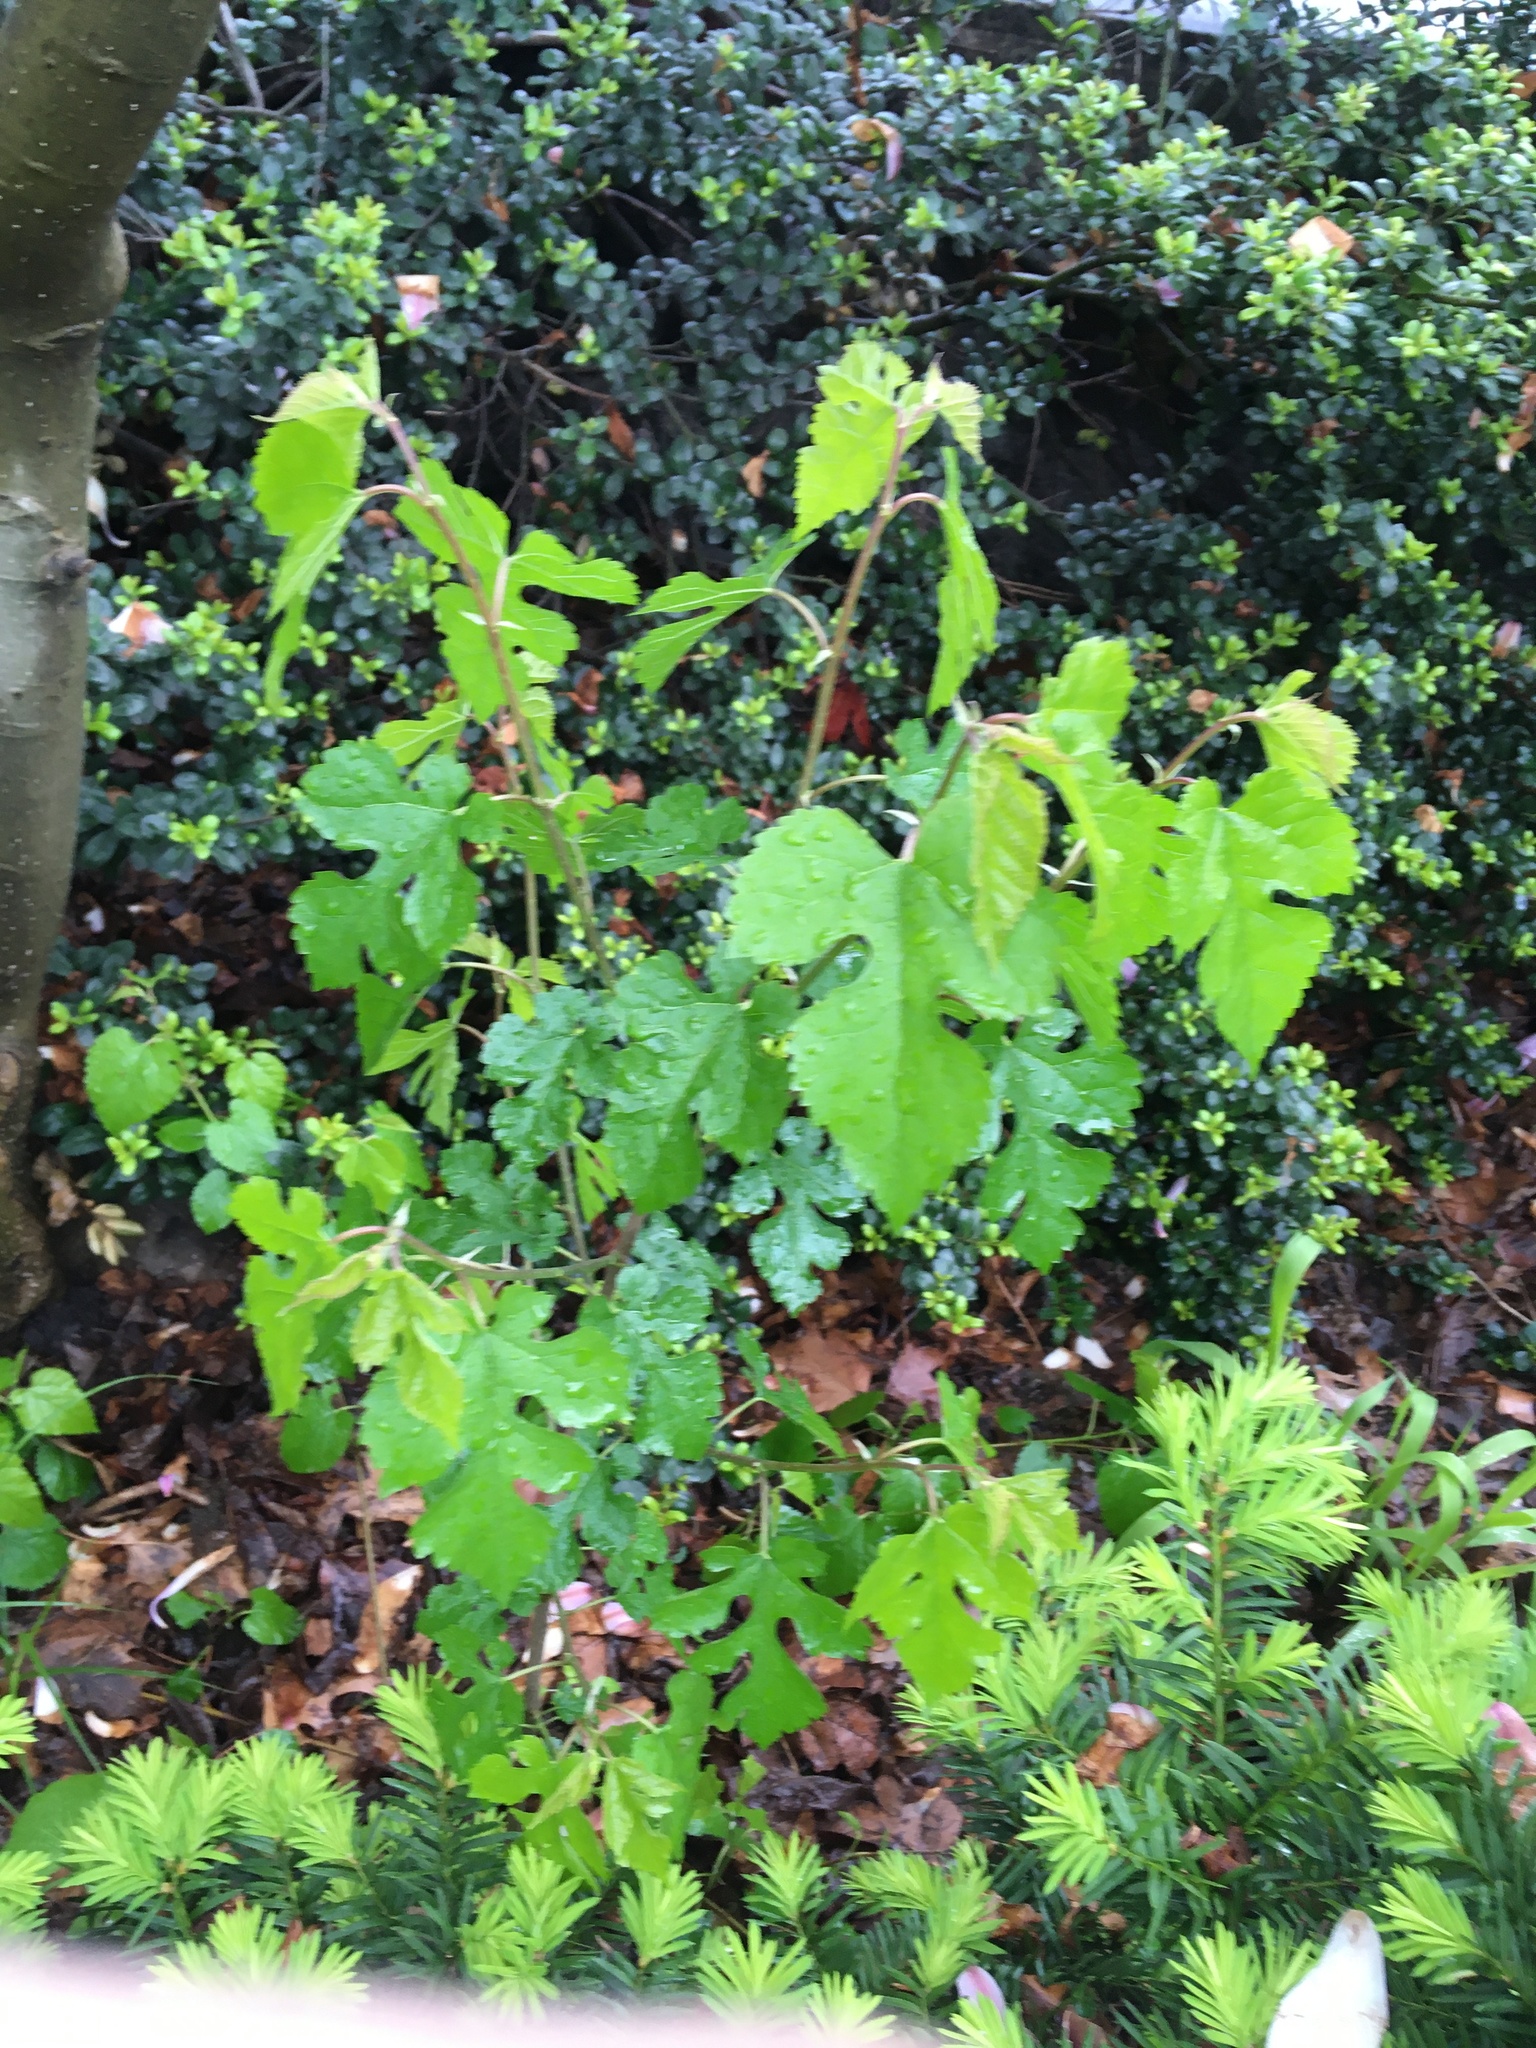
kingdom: Plantae
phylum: Tracheophyta
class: Magnoliopsida
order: Rosales
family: Moraceae
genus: Morus
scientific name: Morus alba
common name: White mulberry
